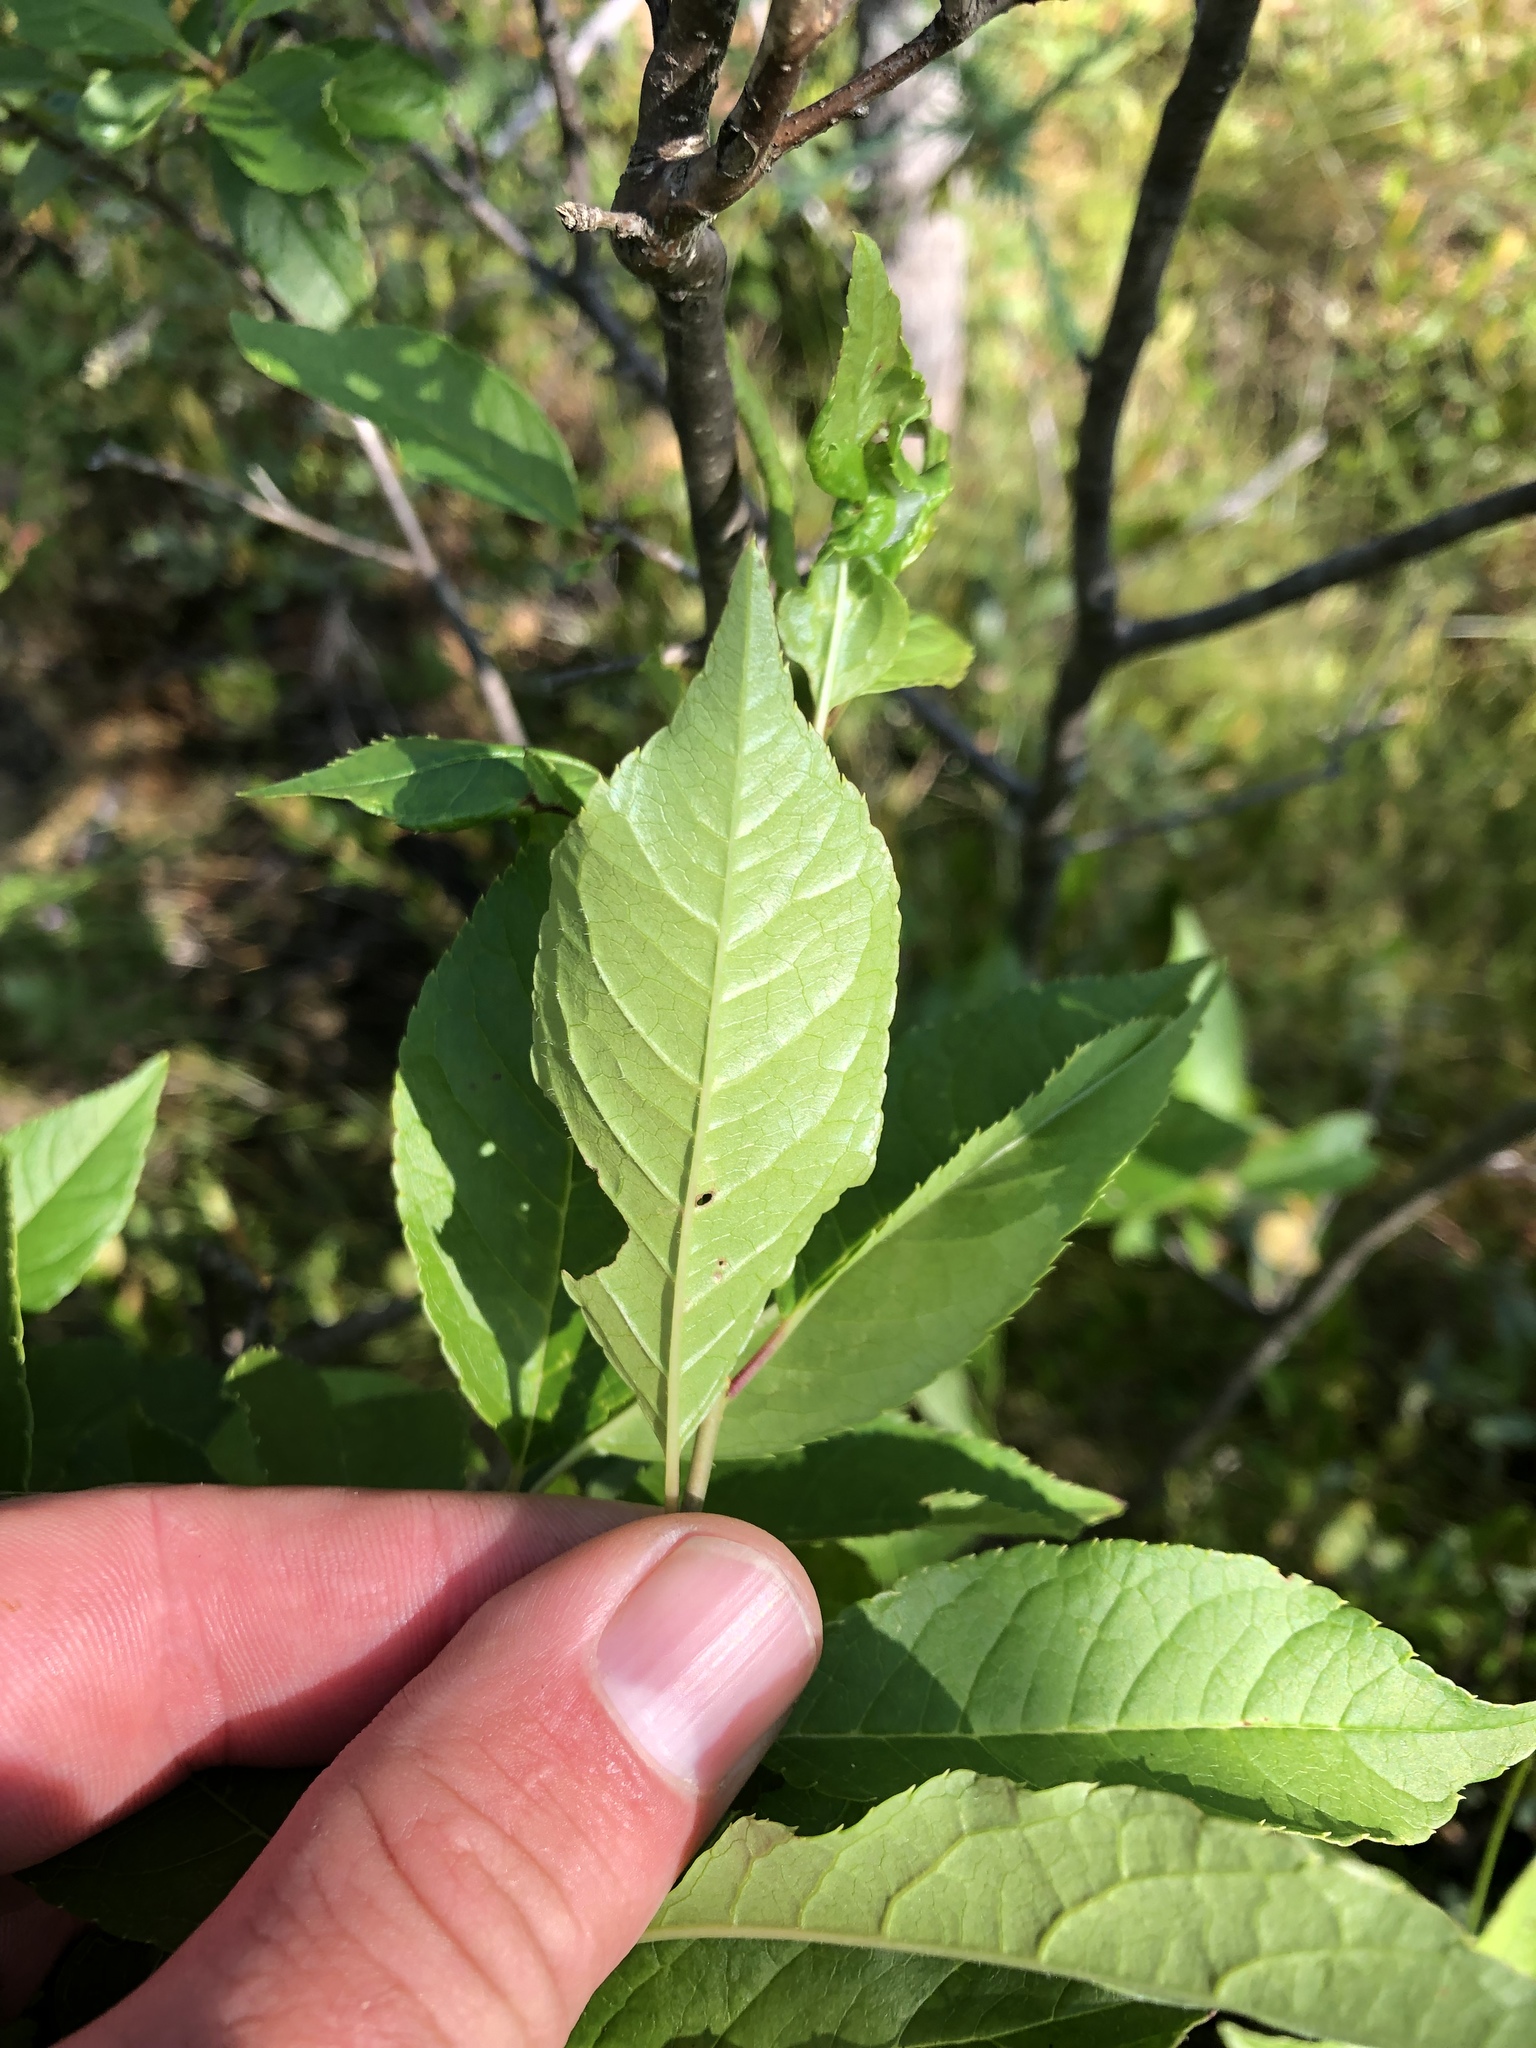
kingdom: Plantae
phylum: Tracheophyta
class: Magnoliopsida
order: Aquifoliales
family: Aquifoliaceae
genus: Ilex
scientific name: Ilex verticillata
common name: Virginia winterberry
